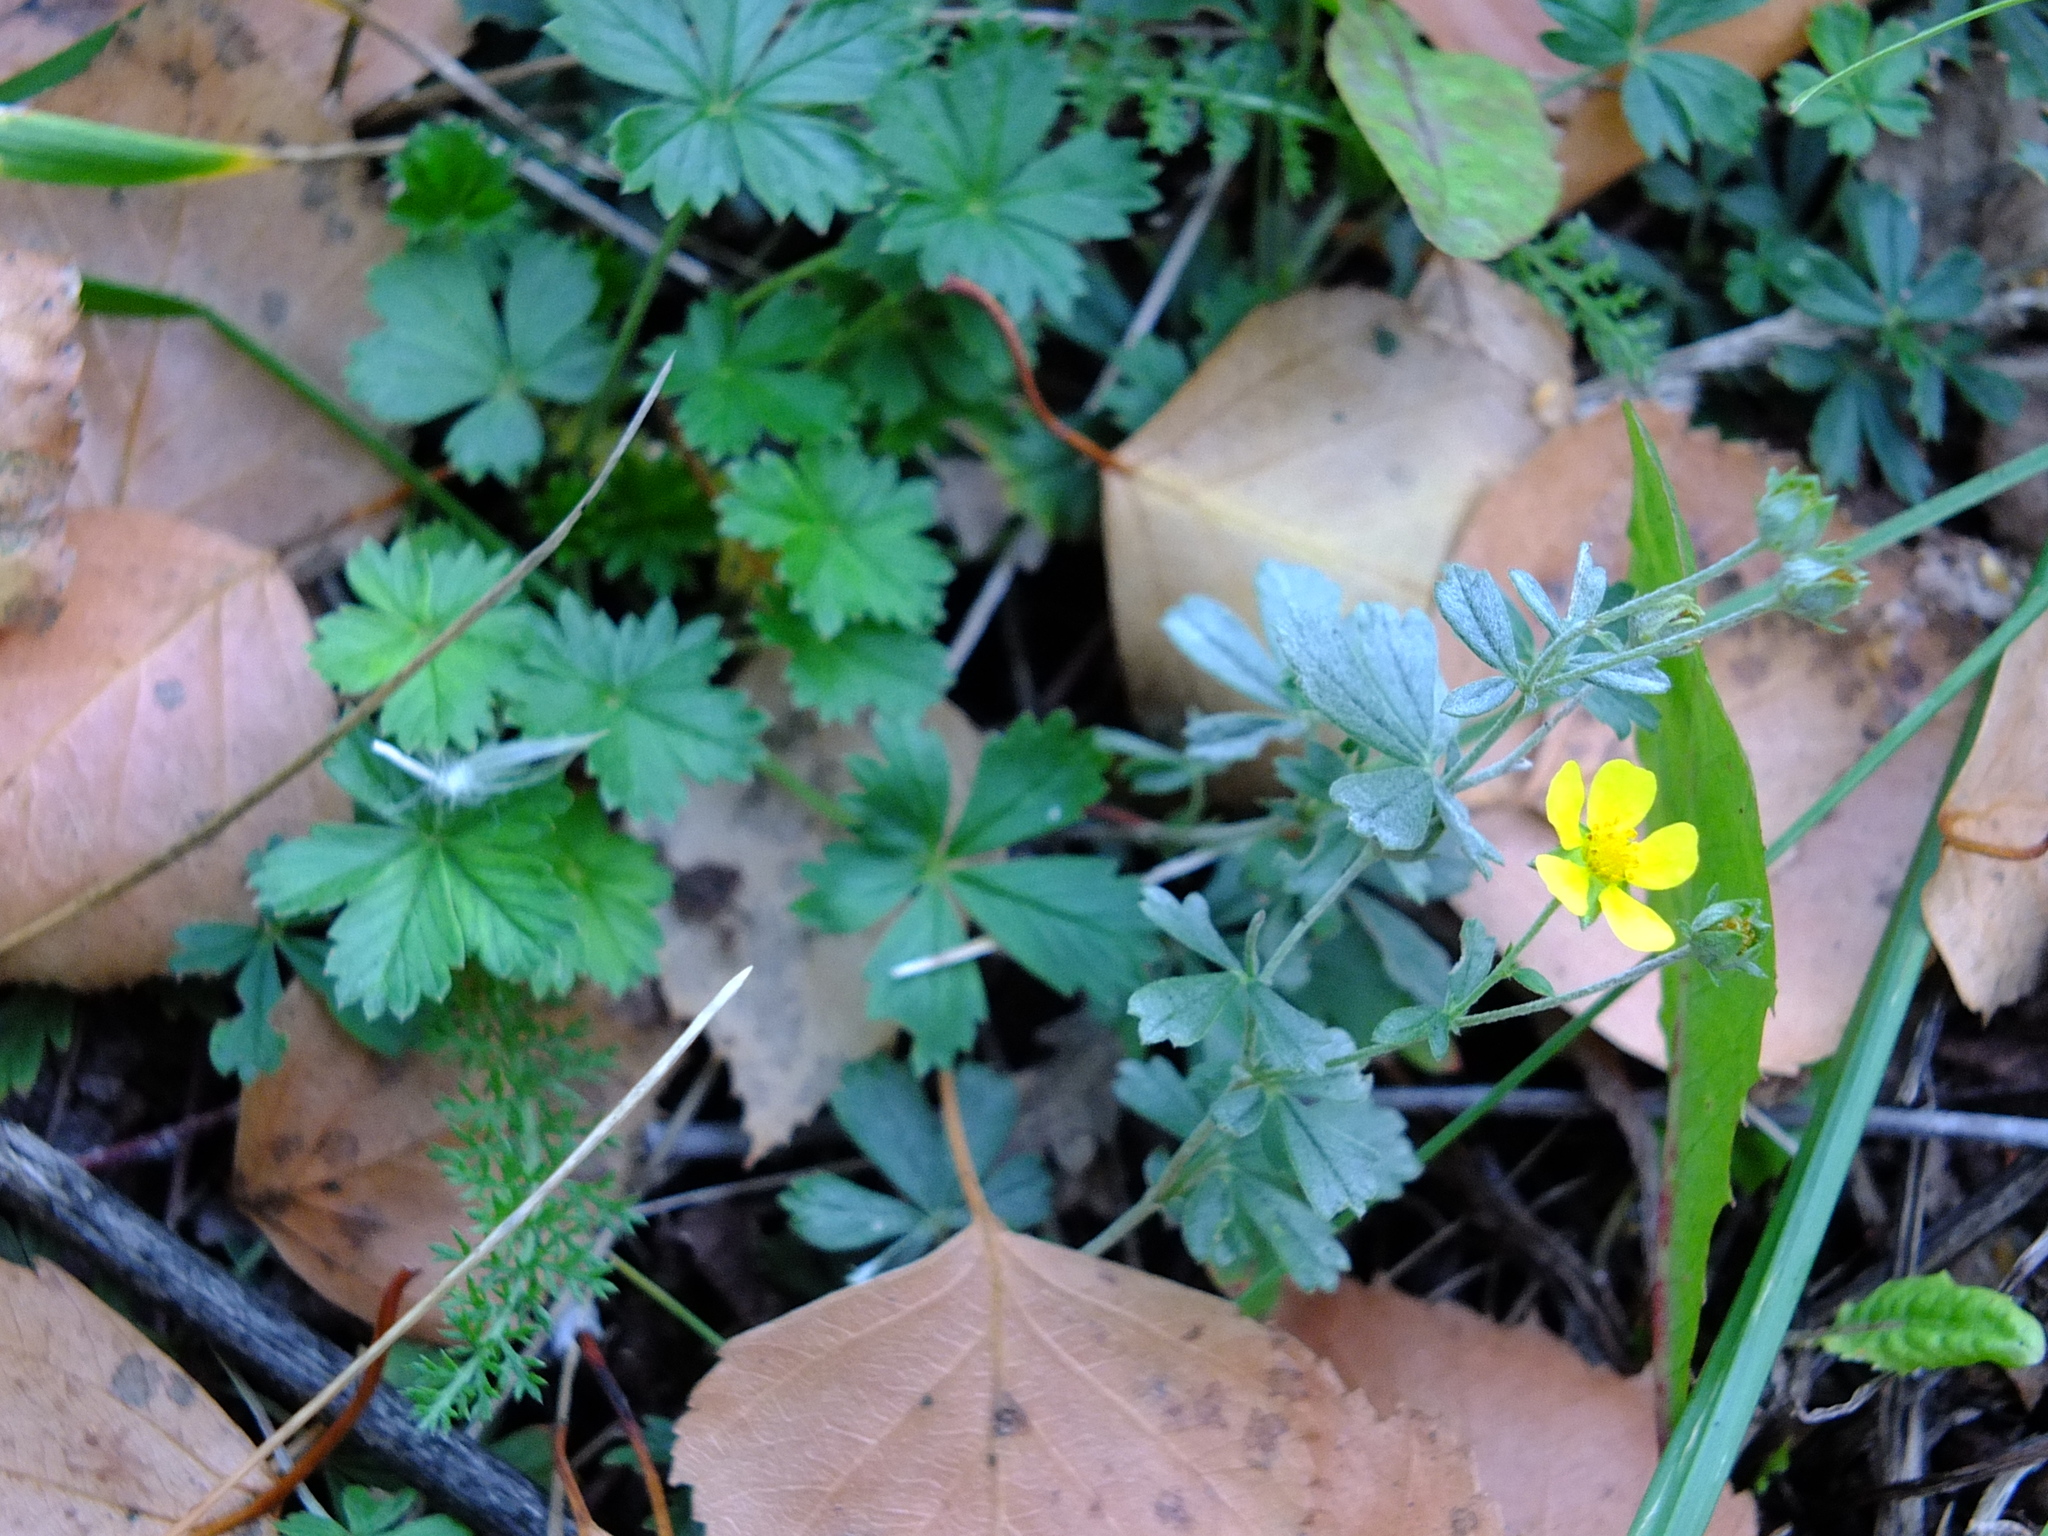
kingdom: Plantae
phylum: Tracheophyta
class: Magnoliopsida
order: Rosales
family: Rosaceae
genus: Potentilla
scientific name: Potentilla argentea
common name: Hoary cinquefoil
